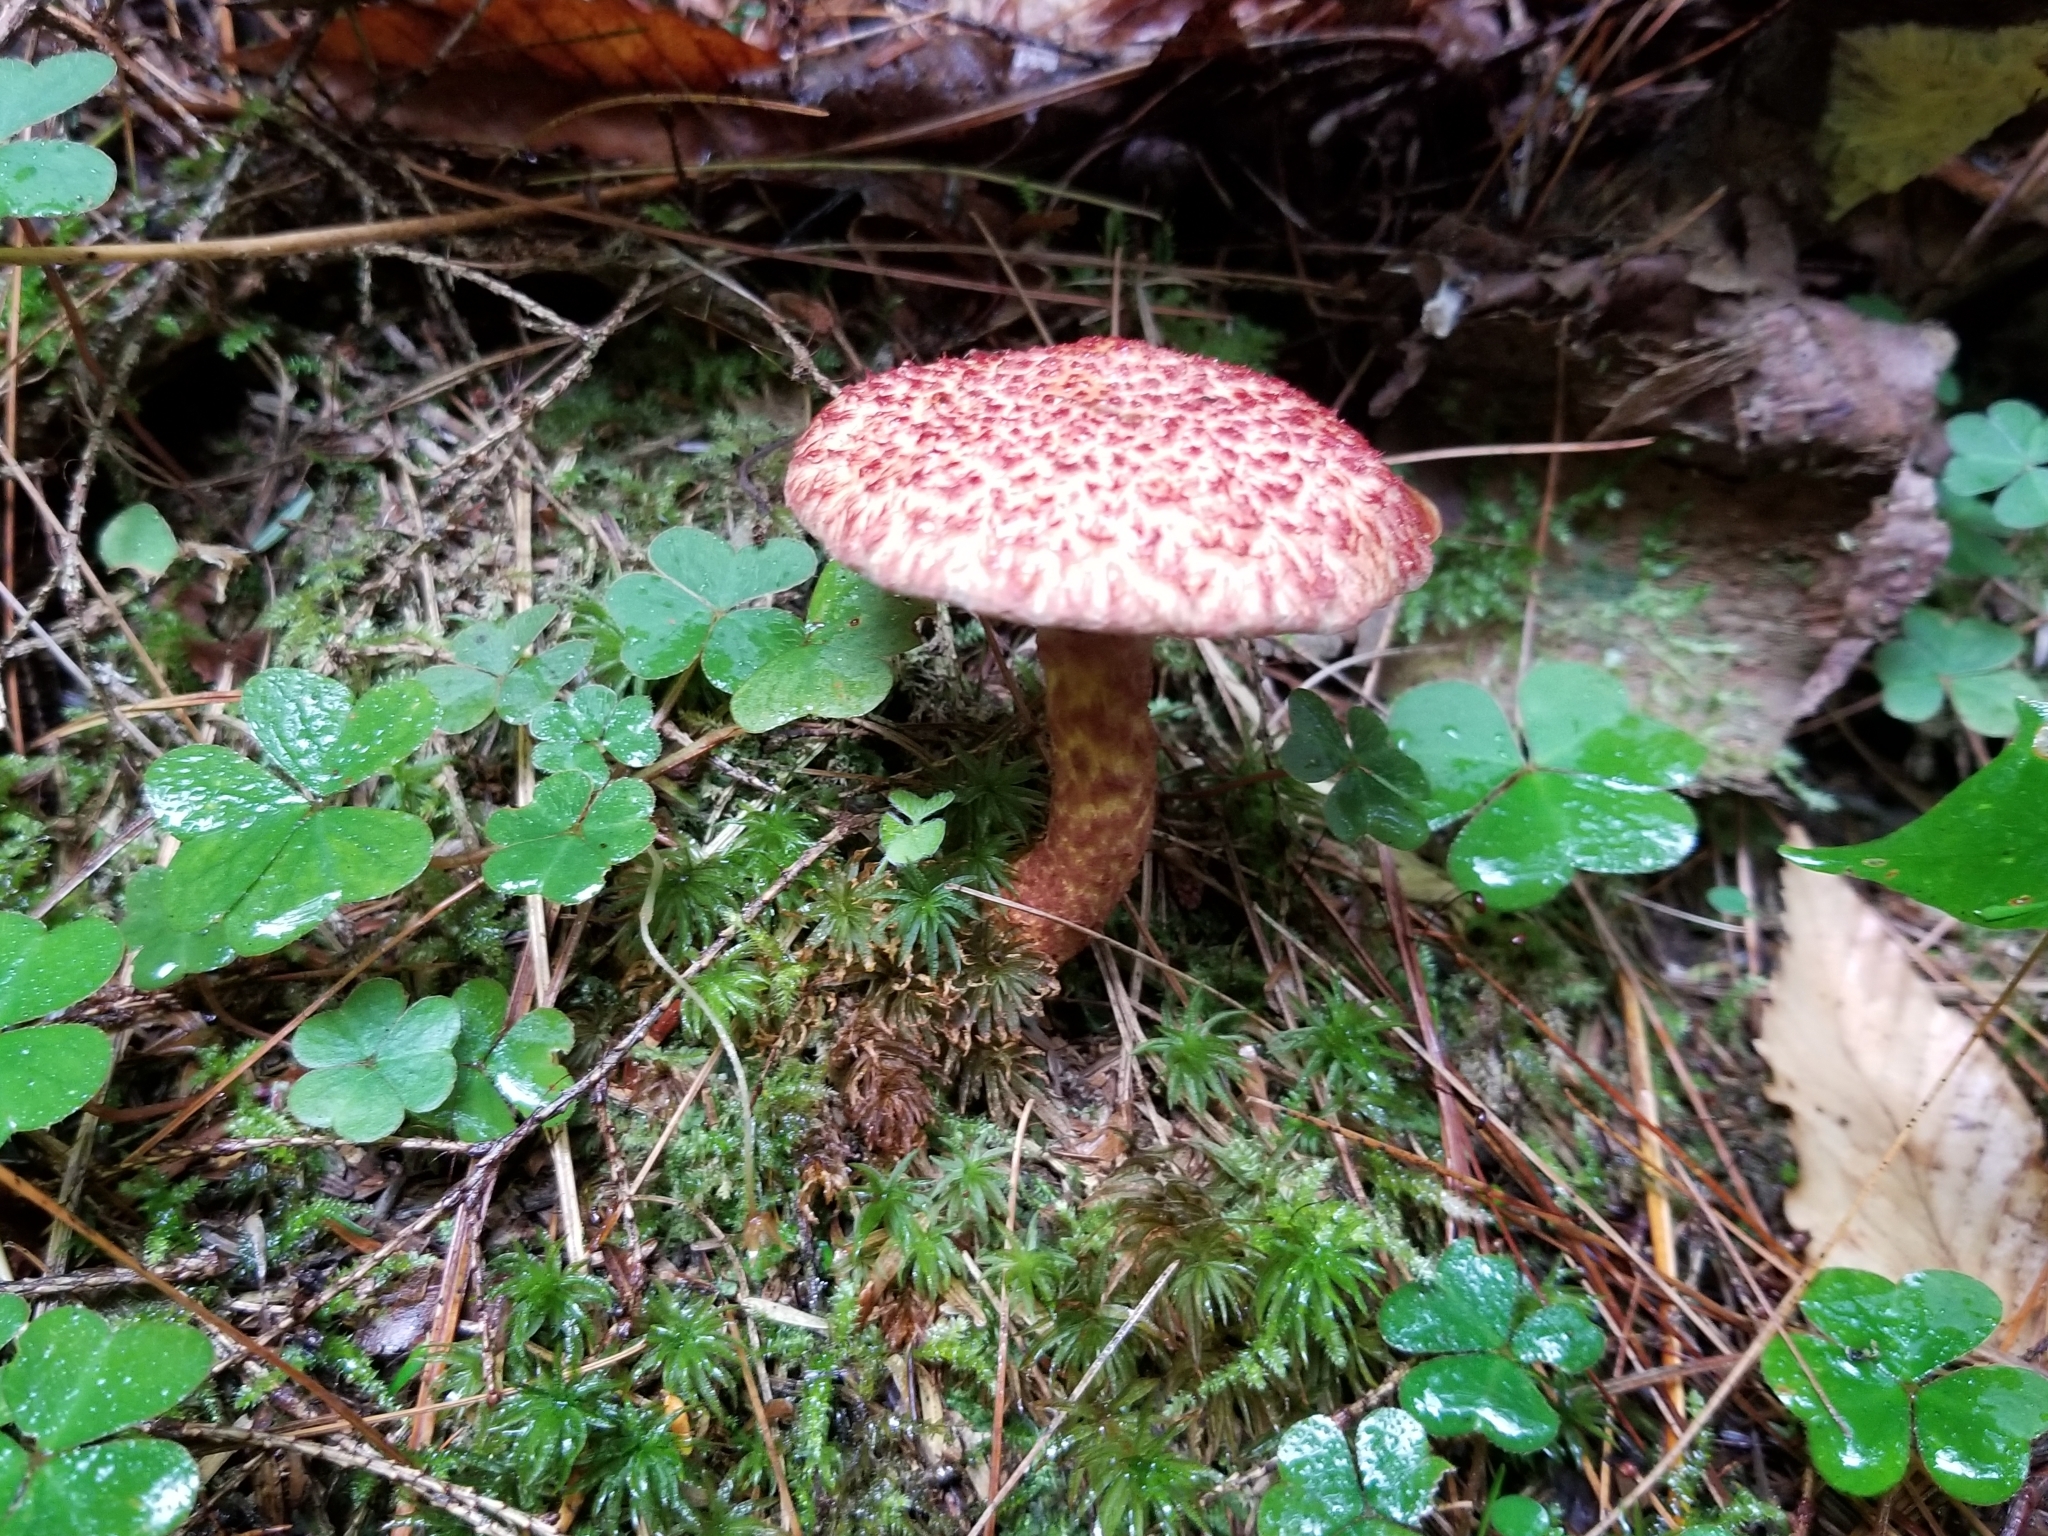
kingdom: Fungi
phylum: Basidiomycota
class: Agaricomycetes
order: Boletales
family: Suillaceae
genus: Suillus
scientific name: Suillus spraguei
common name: Painted suillus
